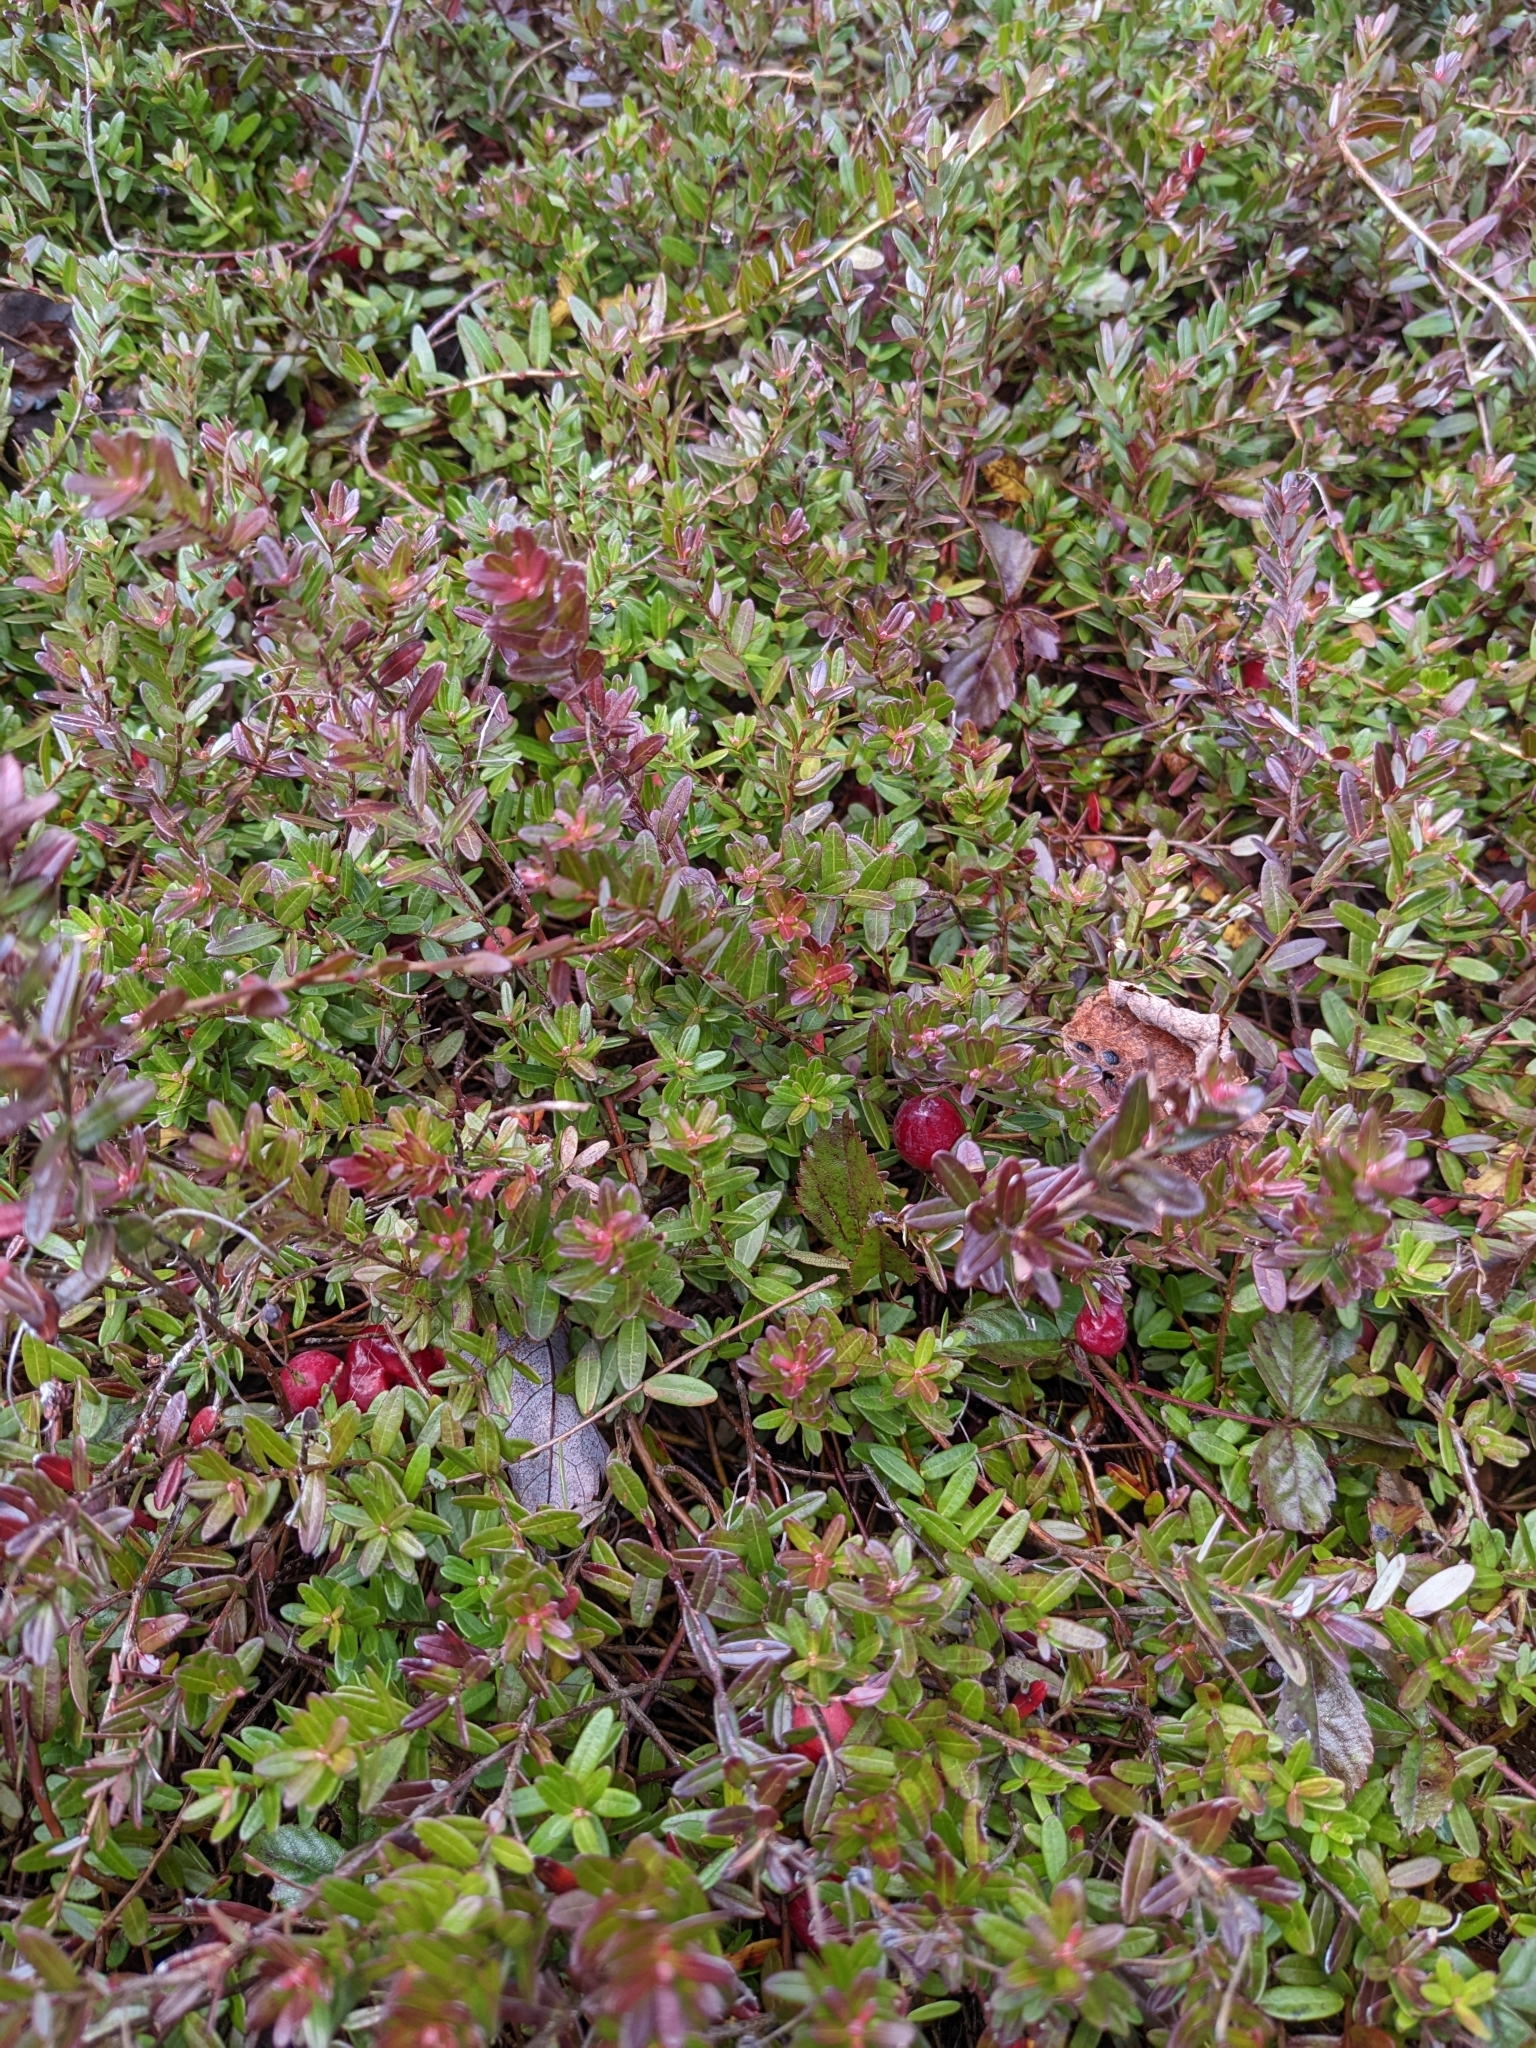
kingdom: Plantae
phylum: Tracheophyta
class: Magnoliopsida
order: Ericales
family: Ericaceae
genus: Vaccinium
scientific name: Vaccinium macrocarpon
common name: American cranberry
